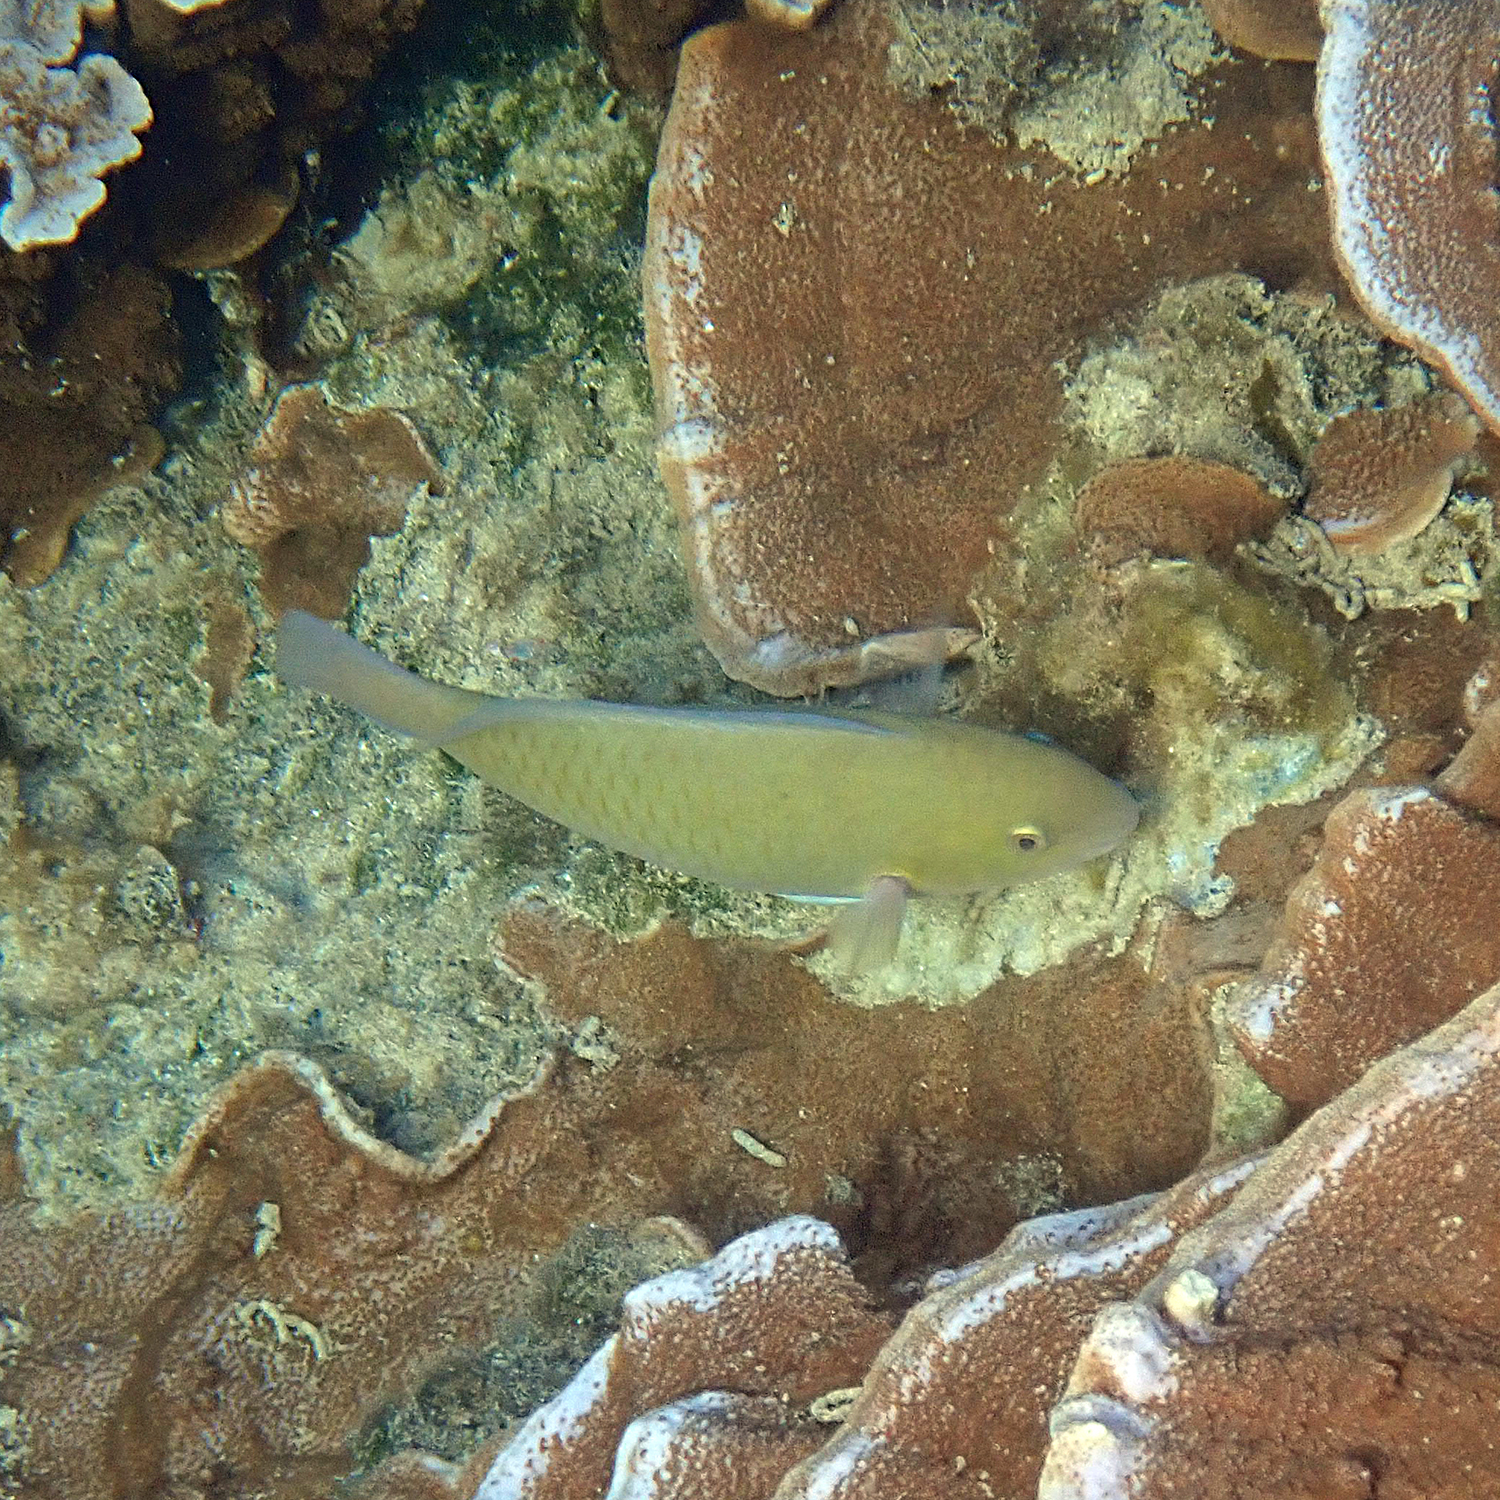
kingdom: Animalia
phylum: Chordata
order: Perciformes
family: Scaridae
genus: Scarus
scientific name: Scarus rivulatus
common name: Surf parrotfish
